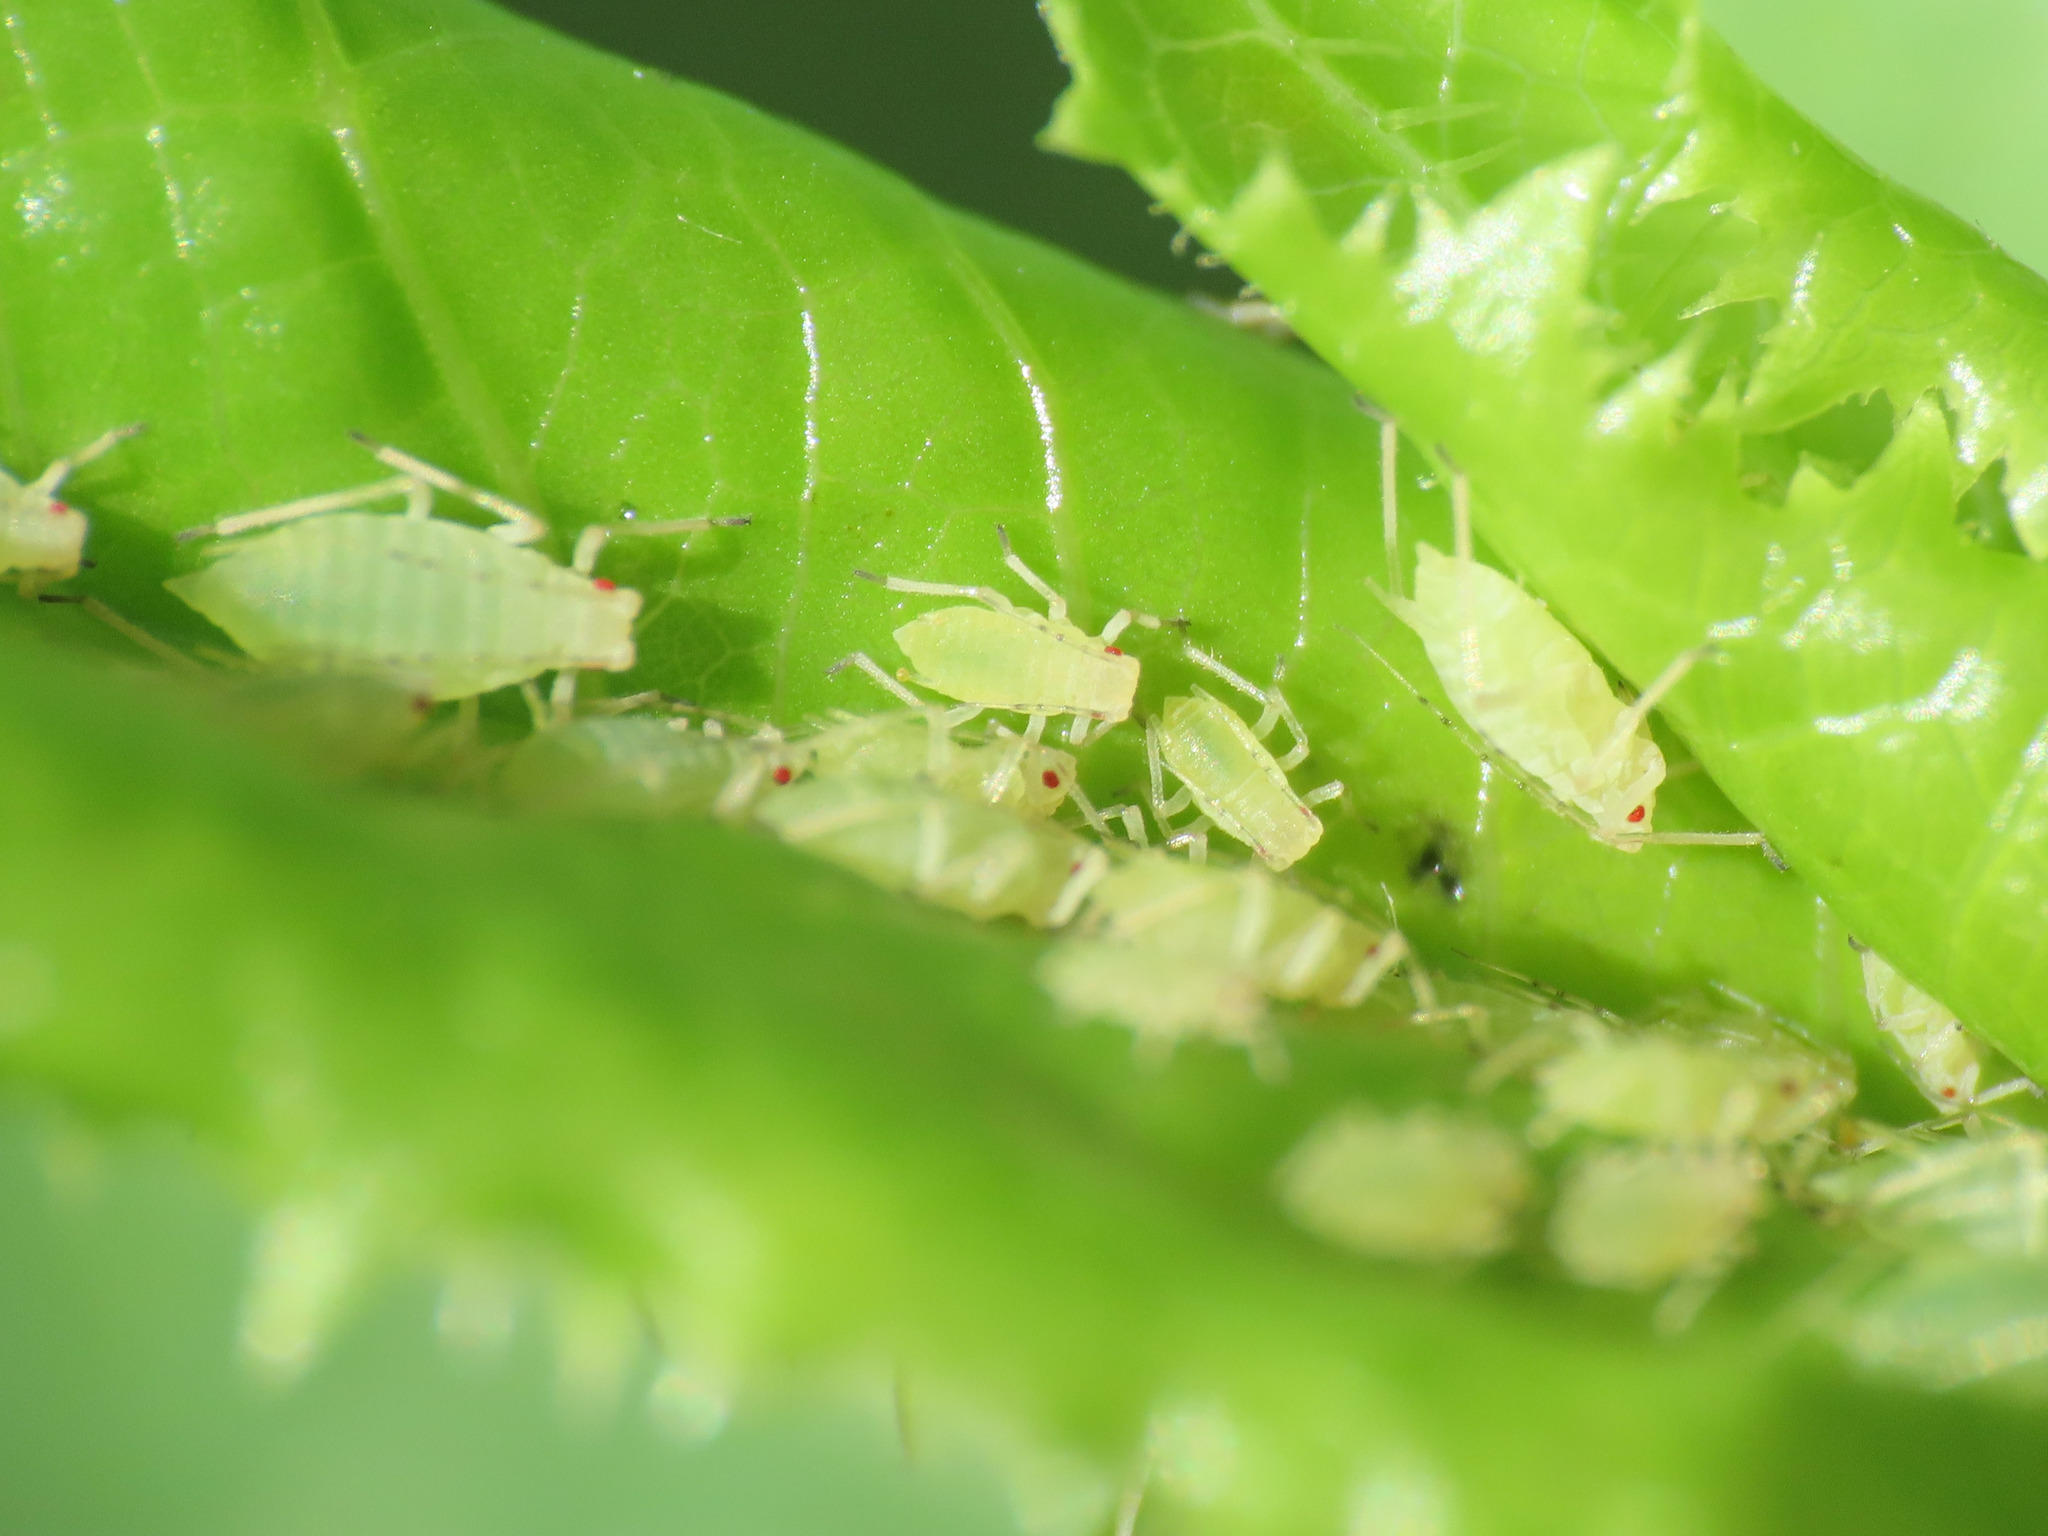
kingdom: Animalia
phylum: Arthropoda
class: Insecta
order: Hemiptera
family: Aphididae
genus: Acyrthosiphon
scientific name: Acyrthosiphon lactucae
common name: Aphid
